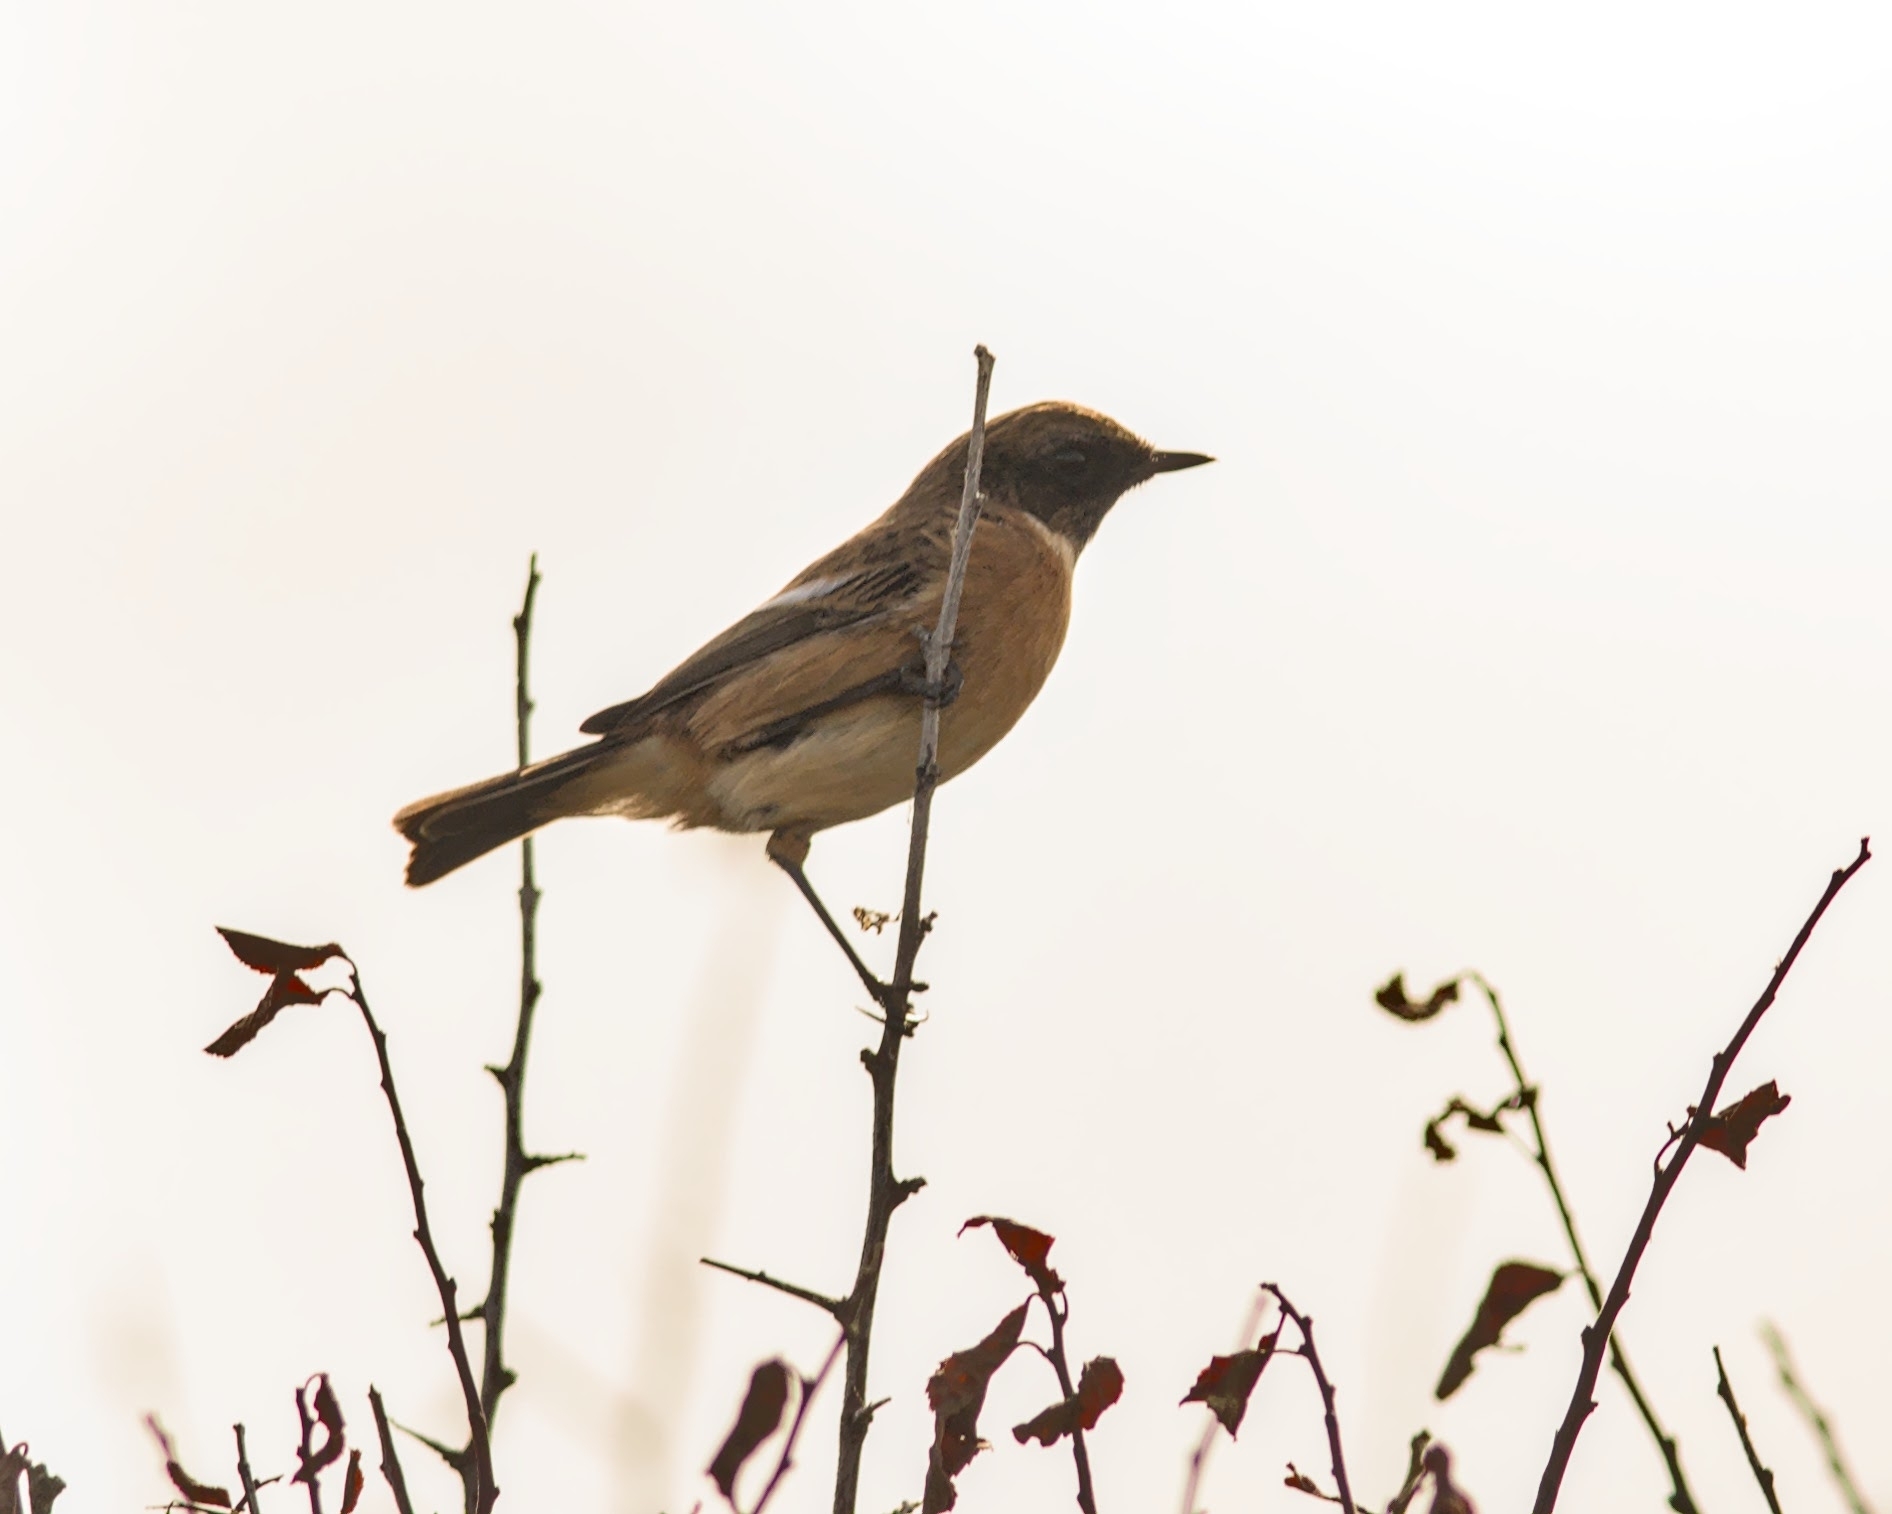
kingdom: Animalia
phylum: Chordata
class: Aves
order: Passeriformes
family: Muscicapidae
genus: Saxicola
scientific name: Saxicola rubicola
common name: European stonechat
